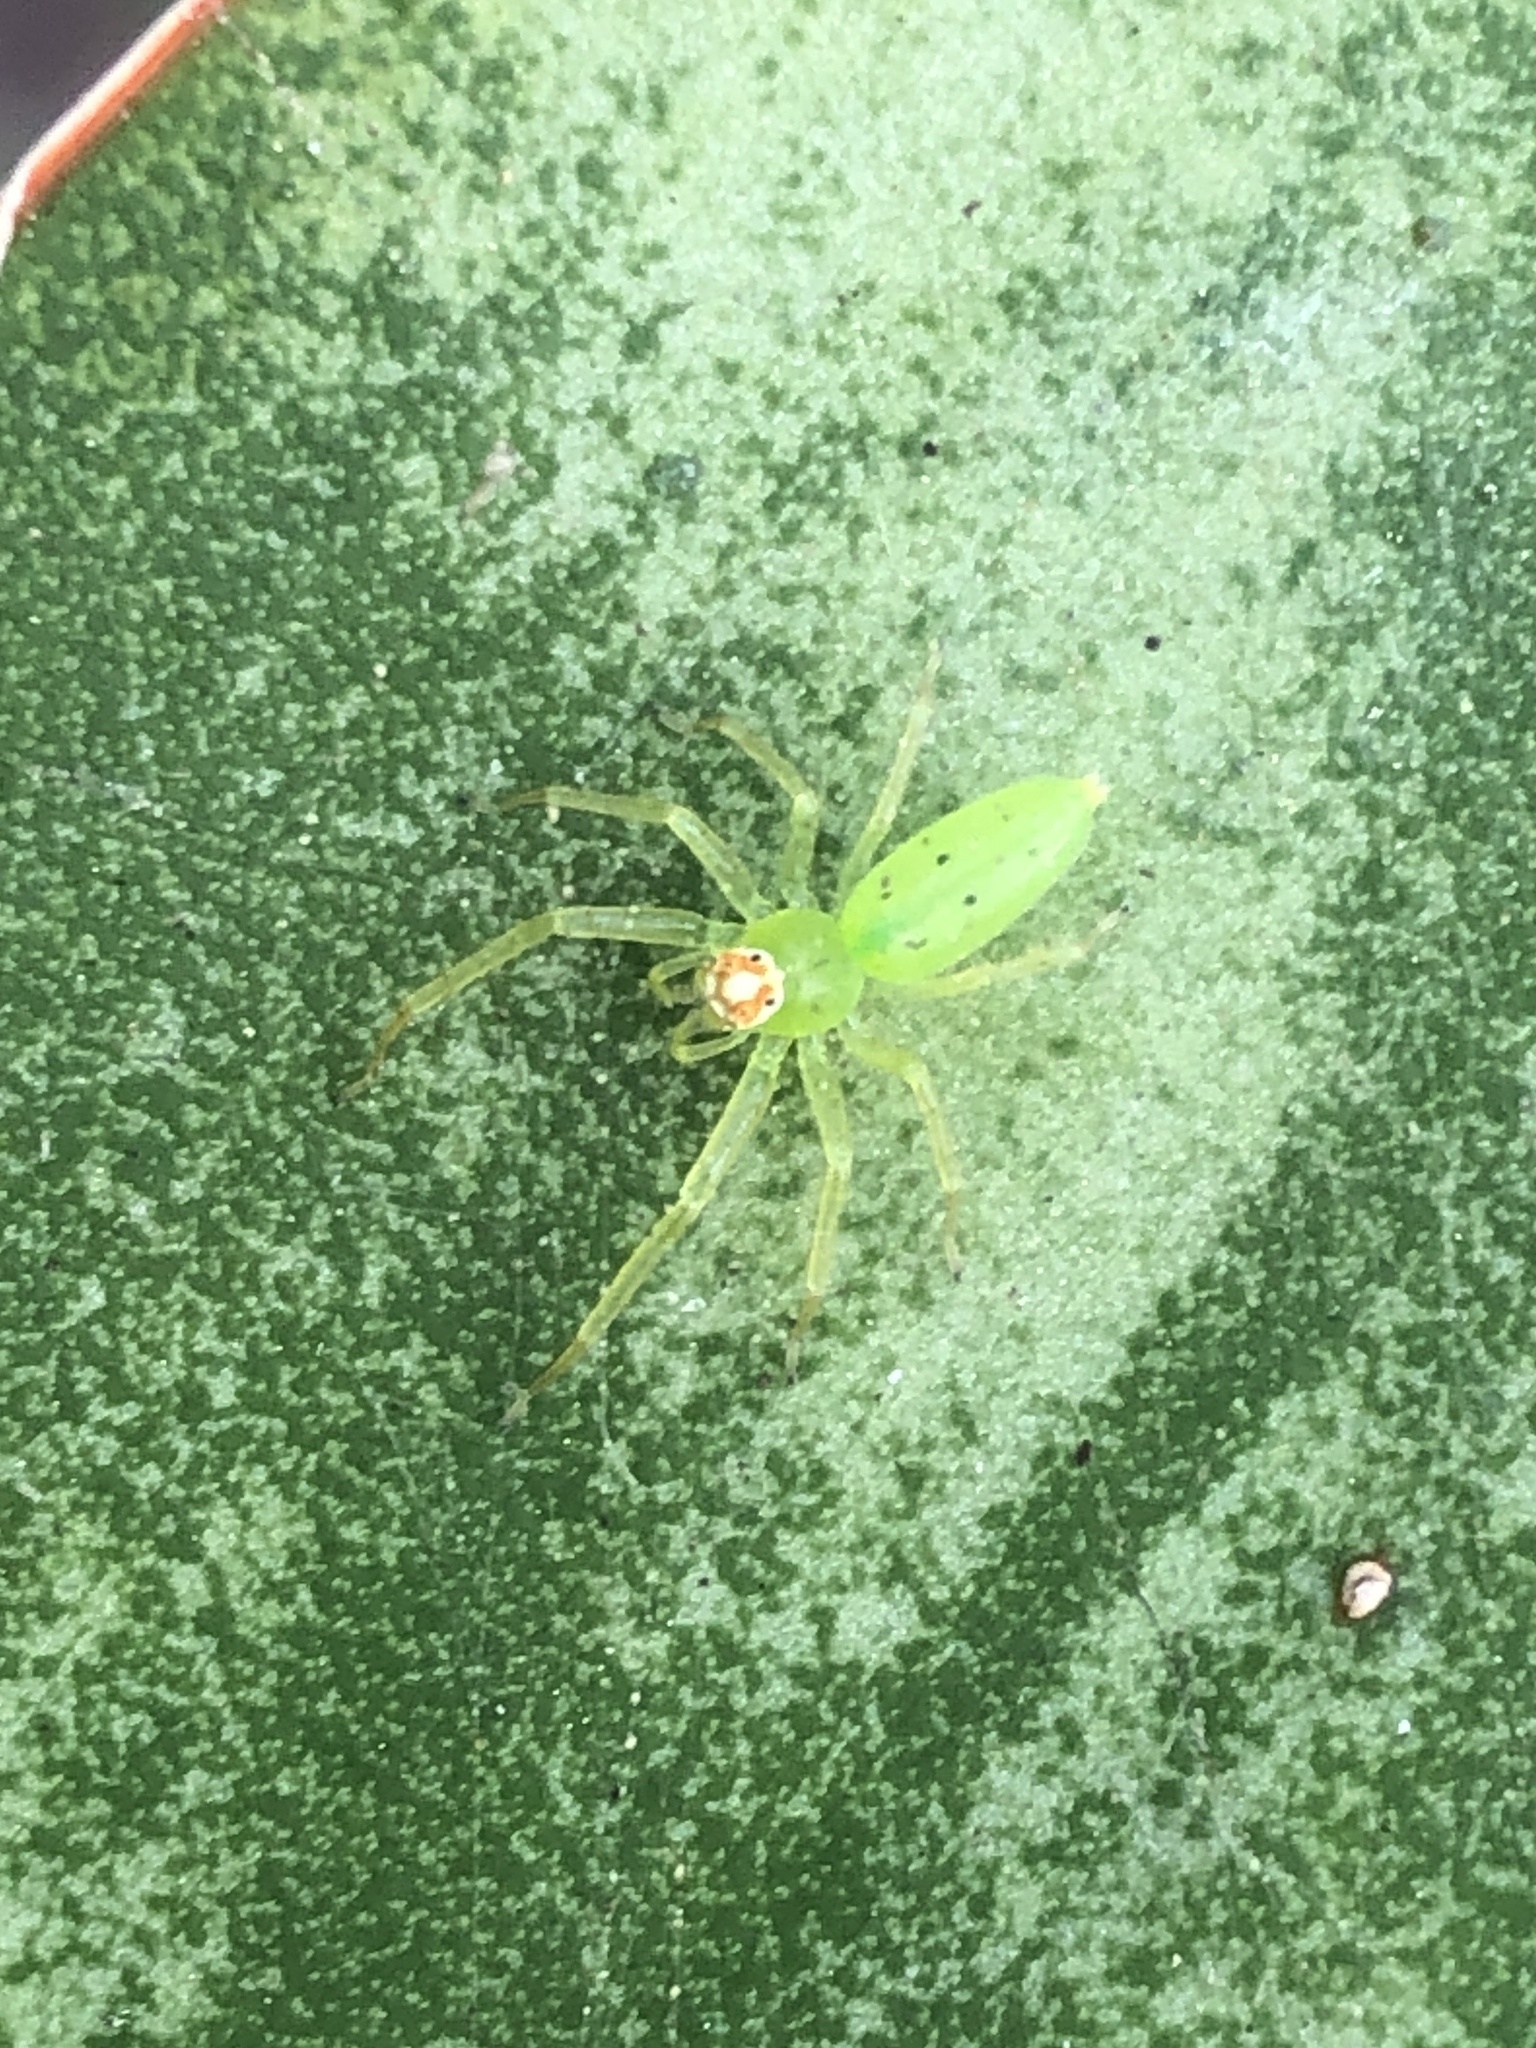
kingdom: Animalia
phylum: Arthropoda
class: Arachnida
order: Araneae
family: Salticidae
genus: Lyssomanes
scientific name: Lyssomanes viridis
